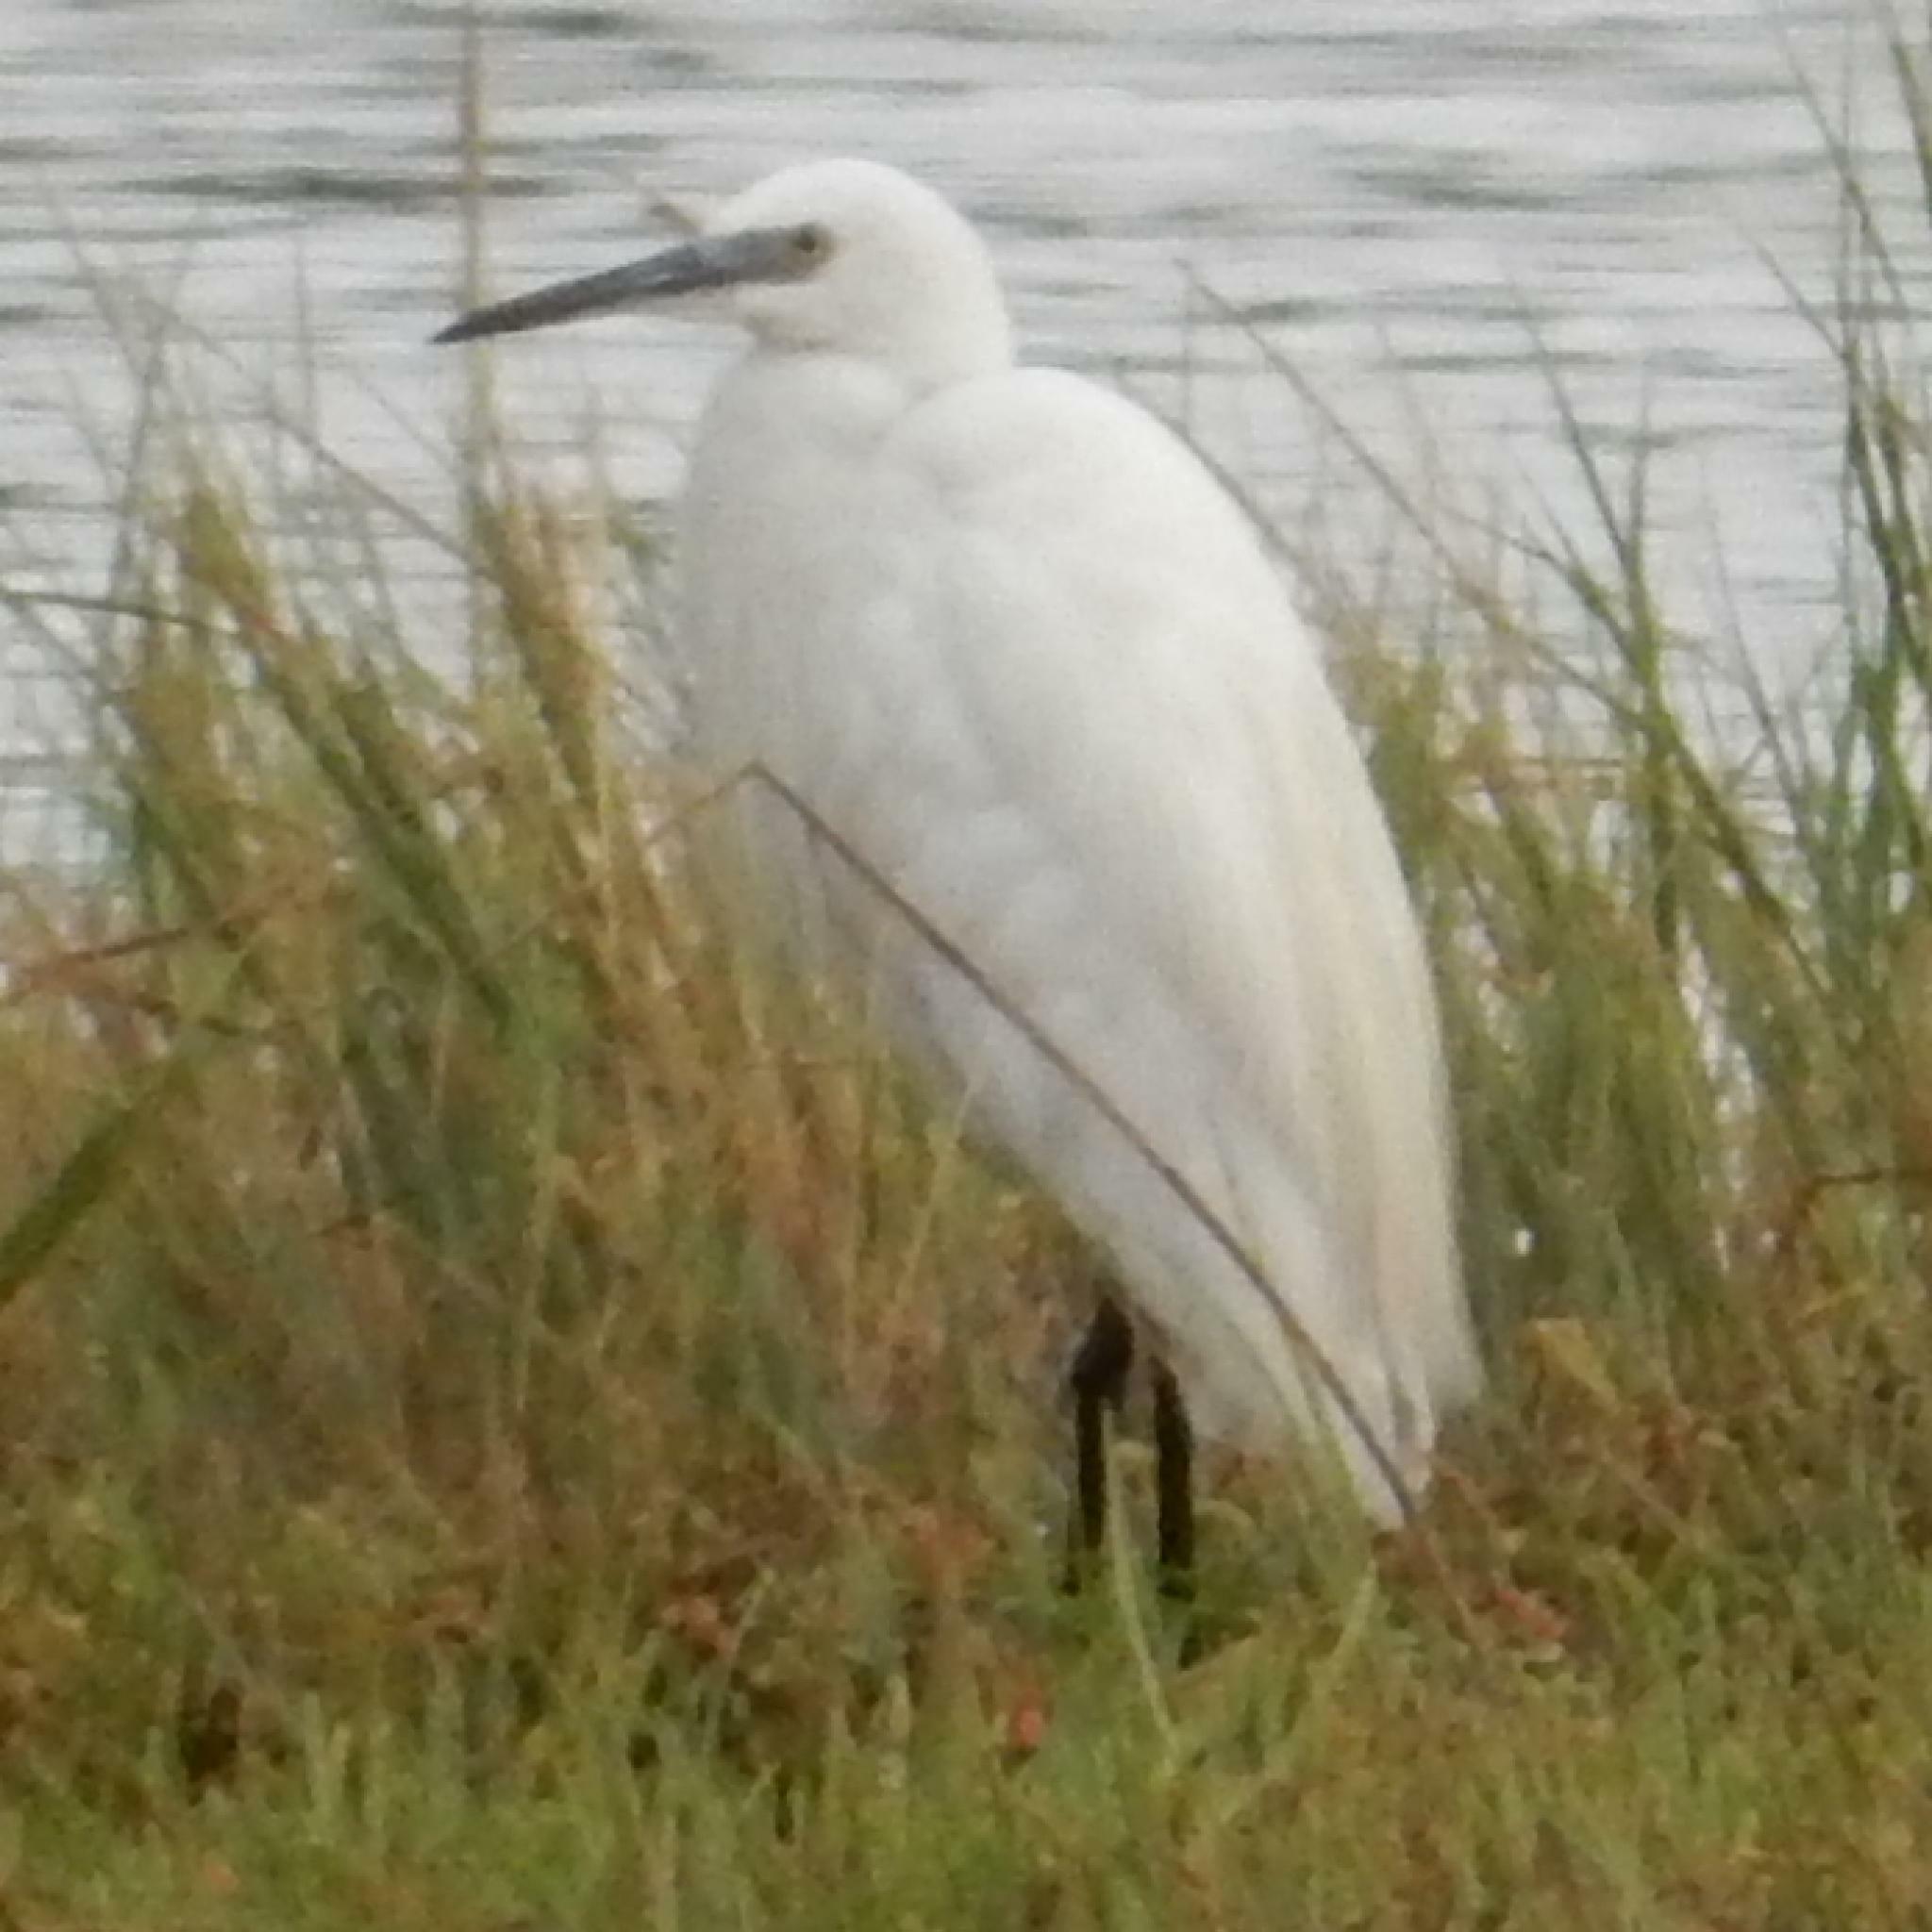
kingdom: Animalia
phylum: Chordata
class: Aves
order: Pelecaniformes
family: Ardeidae
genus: Egretta
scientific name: Egretta garzetta
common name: Little egret
